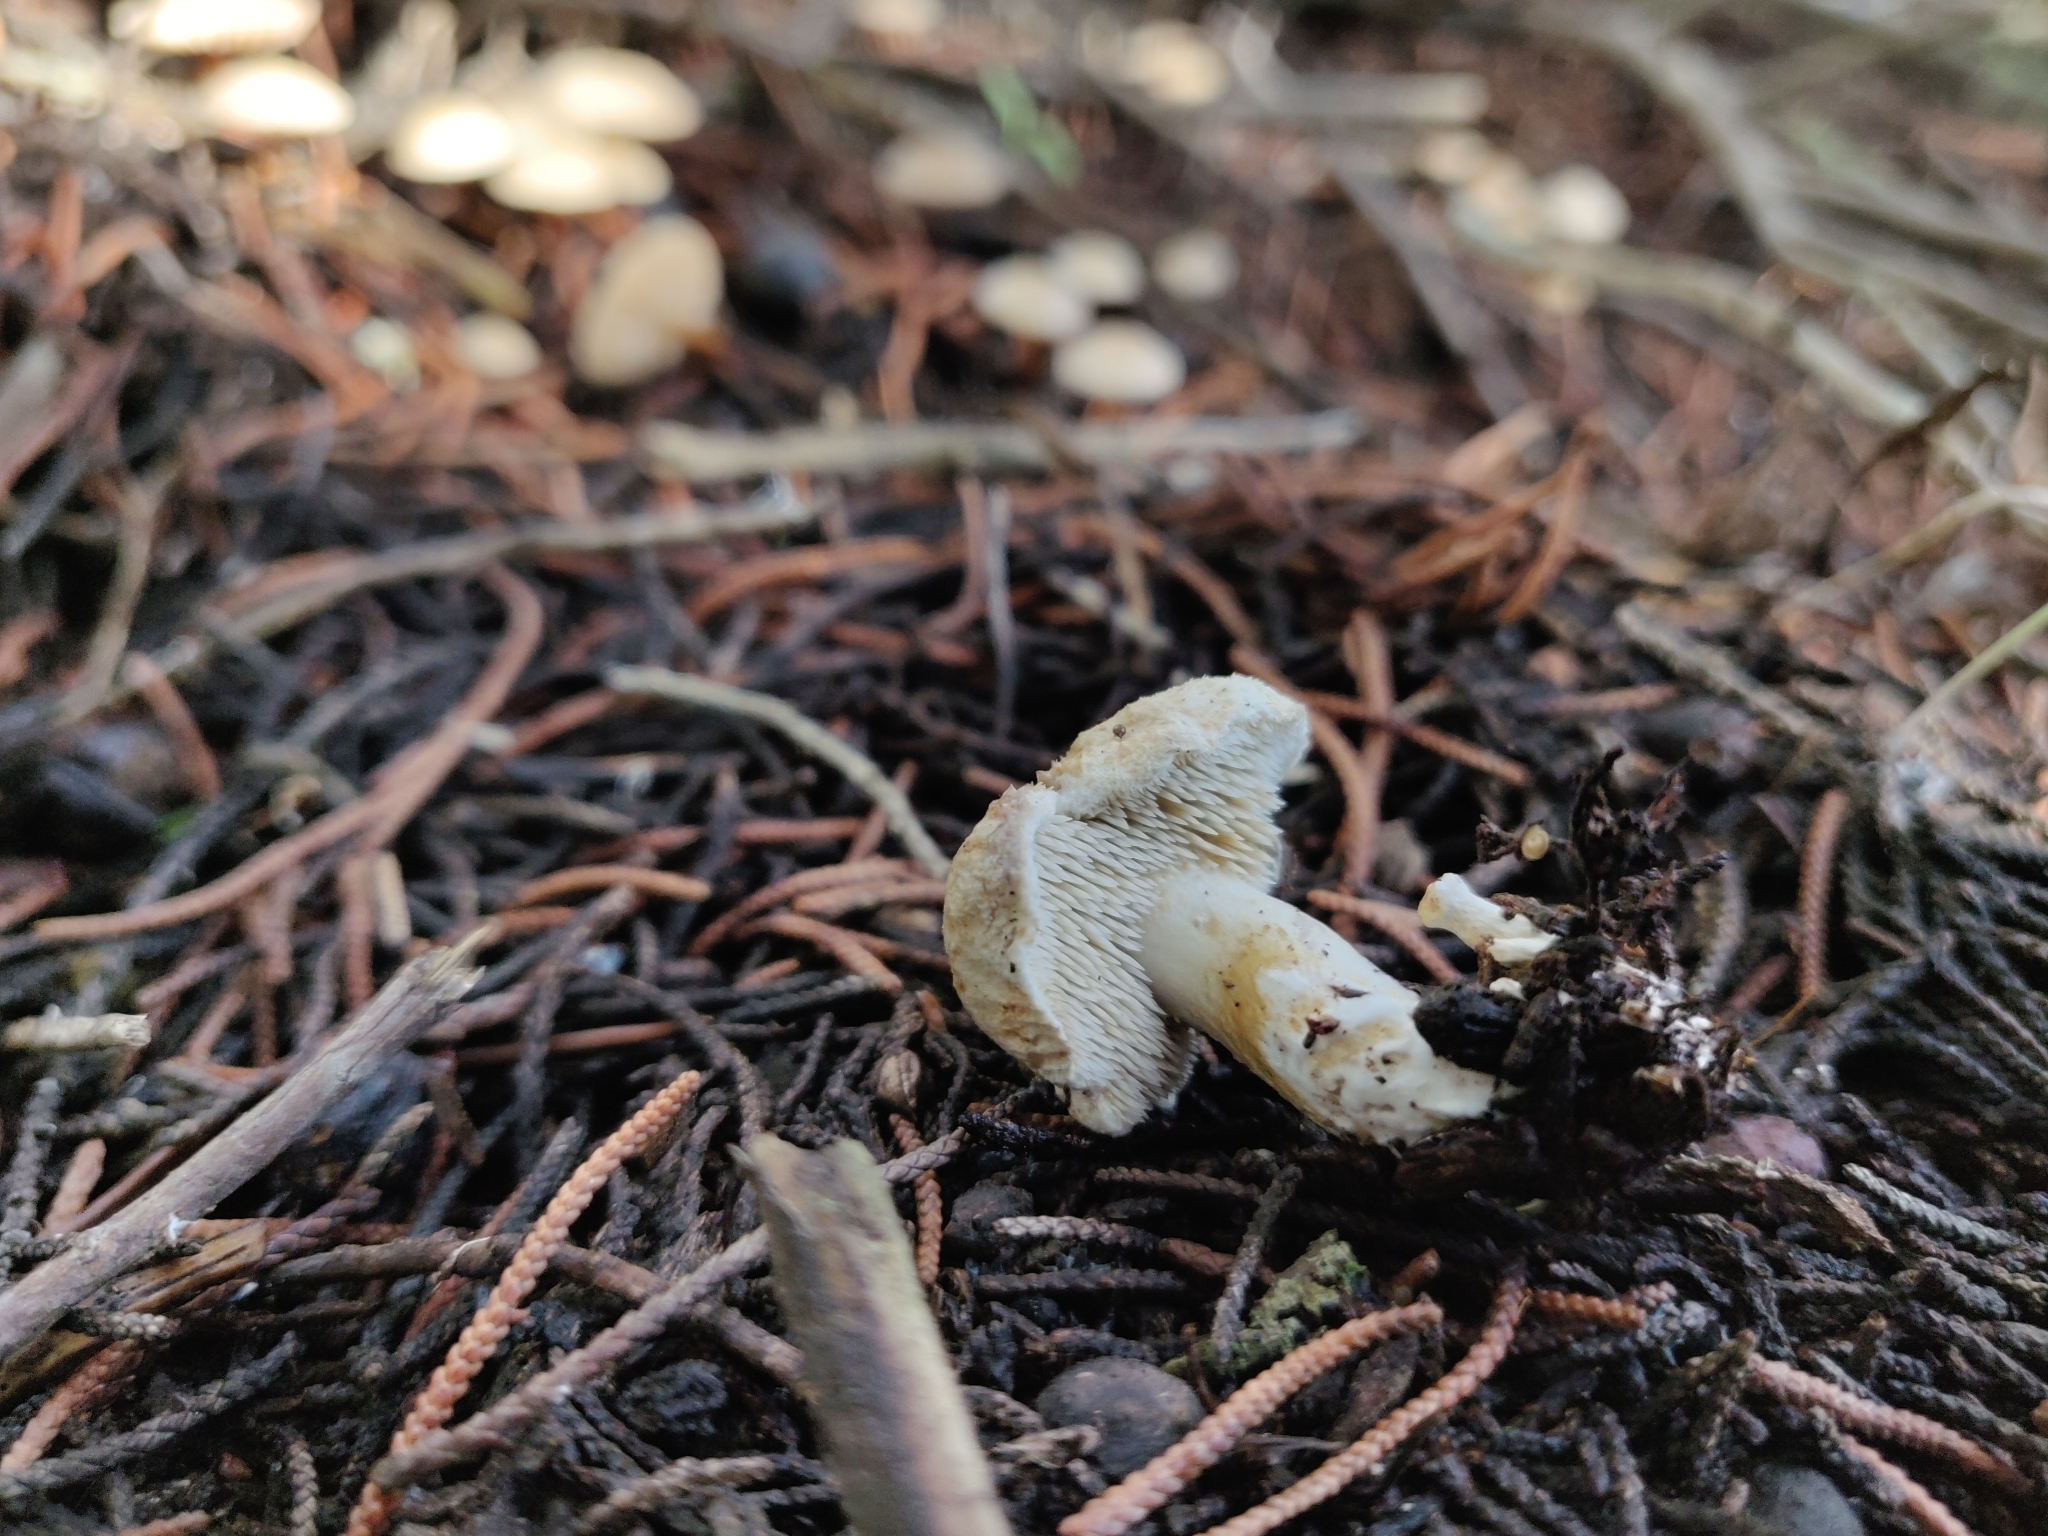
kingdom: Fungi
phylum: Basidiomycota
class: Agaricomycetes
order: Gomphales
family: Clavariadelphaceae
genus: Beenakia
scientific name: Beenakia mediterranea
